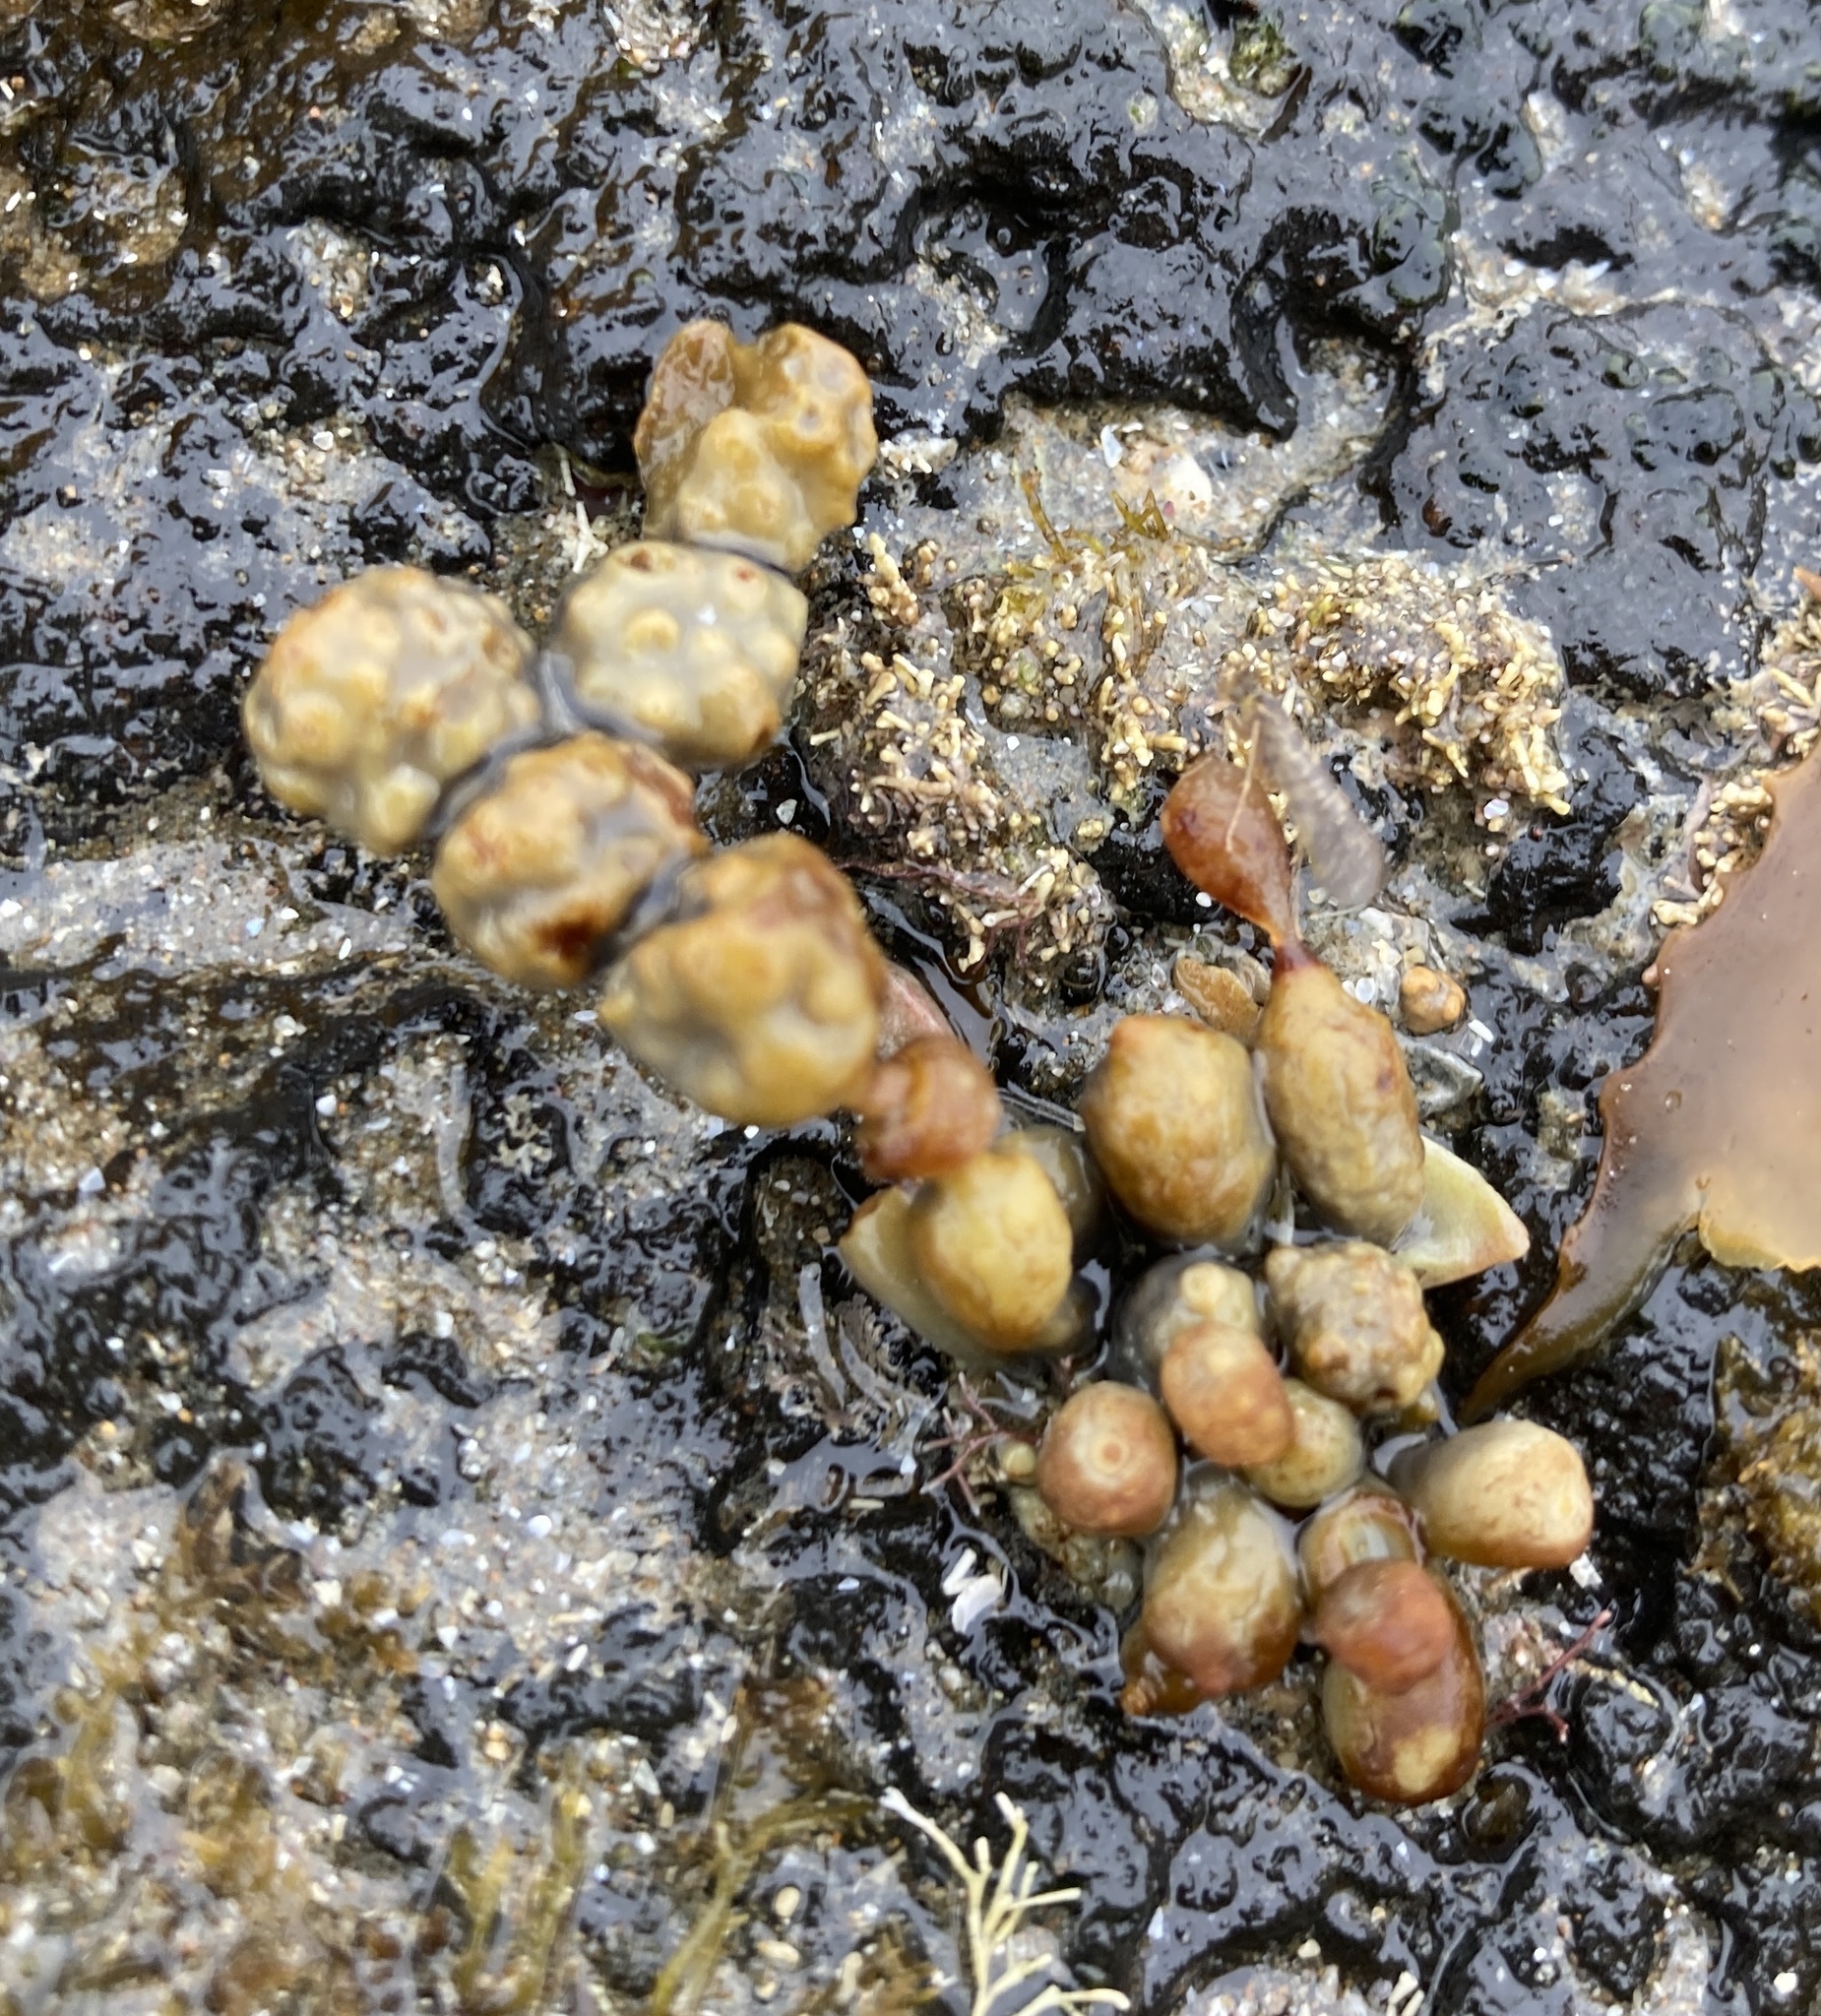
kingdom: Chromista
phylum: Ochrophyta
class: Phaeophyceae
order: Fucales
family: Hormosiraceae
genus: Hormosira
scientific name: Hormosira banksii
